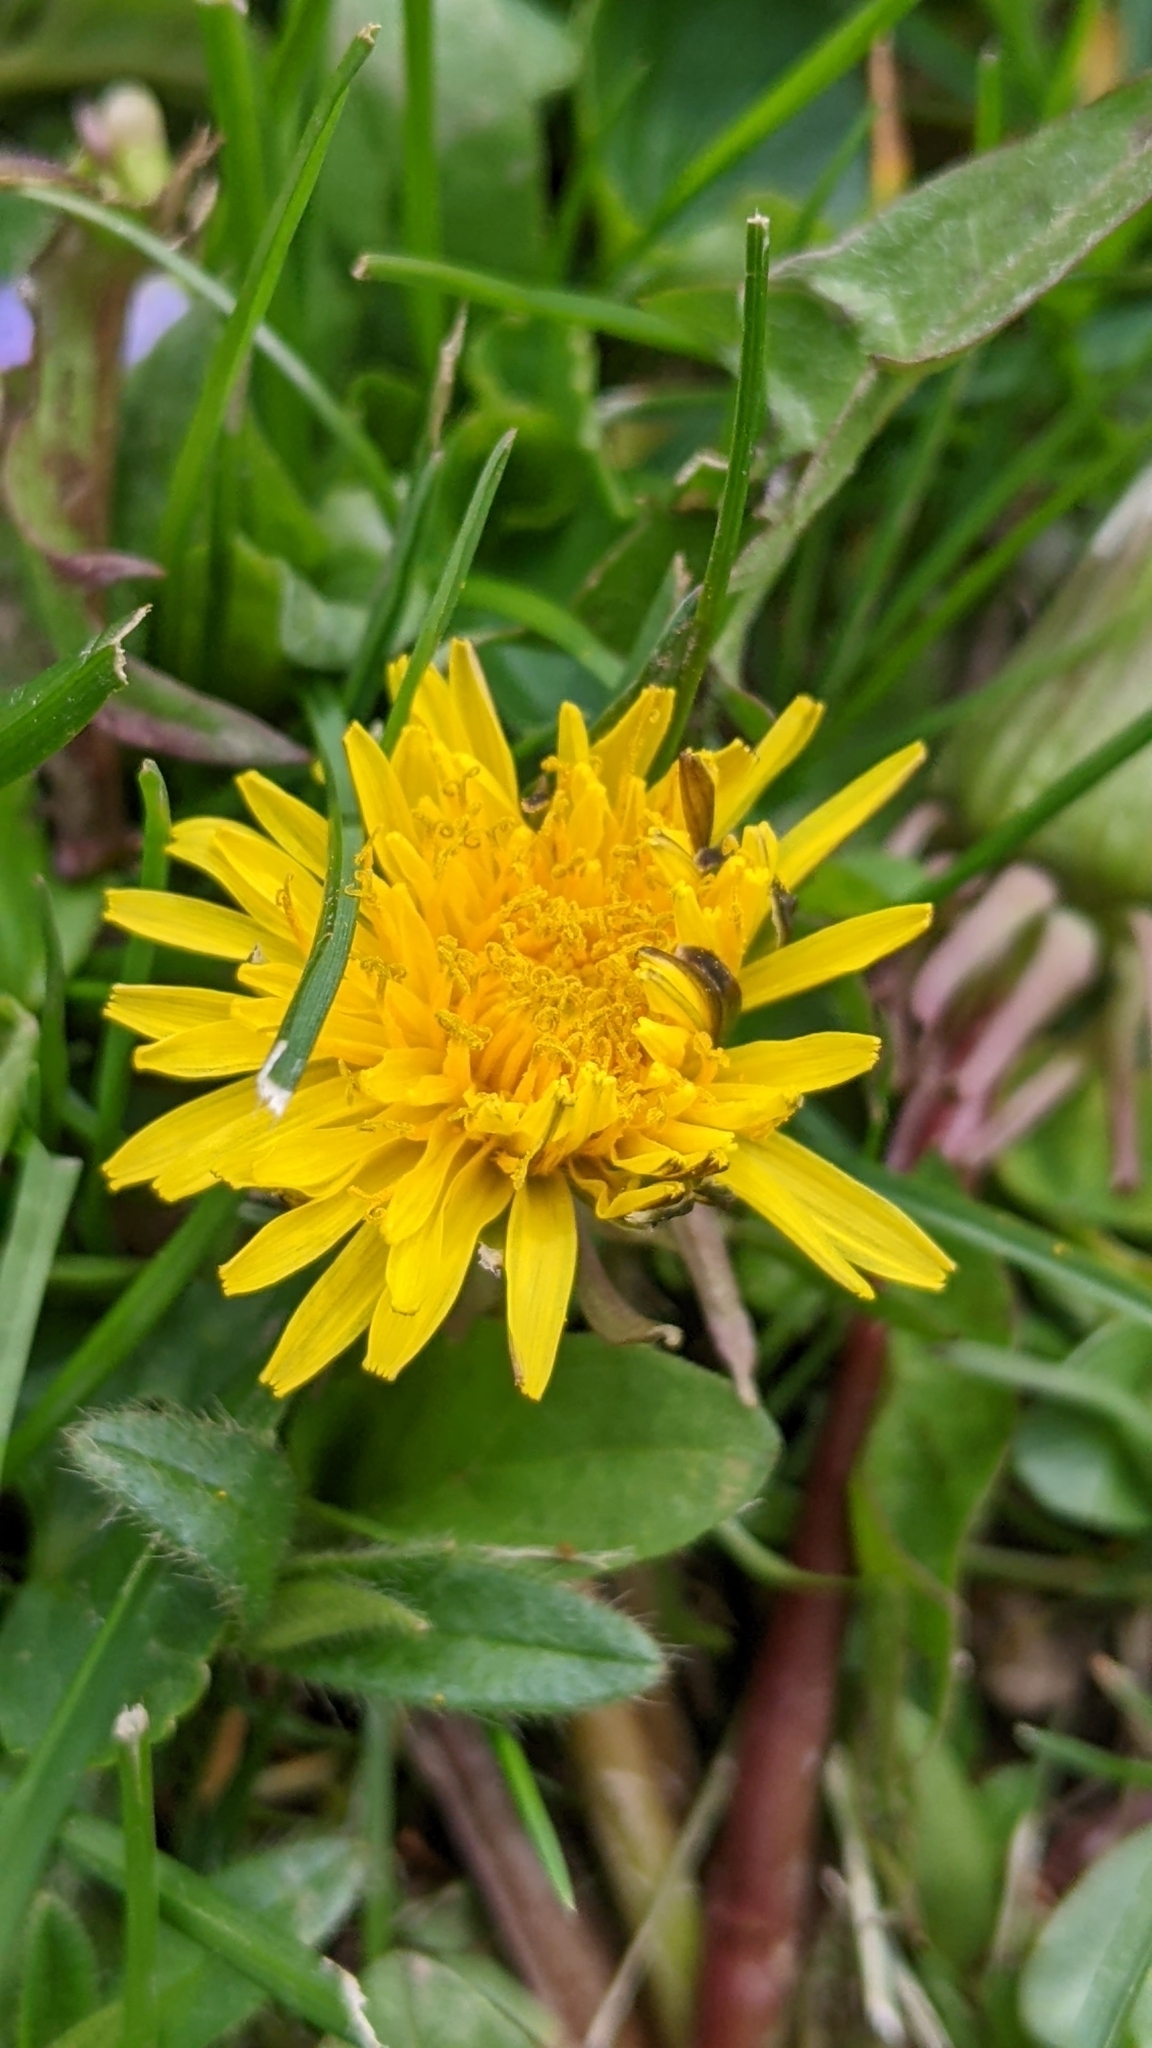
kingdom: Plantae
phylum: Tracheophyta
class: Magnoliopsida
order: Asterales
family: Asteraceae
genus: Taraxacum
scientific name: Taraxacum
